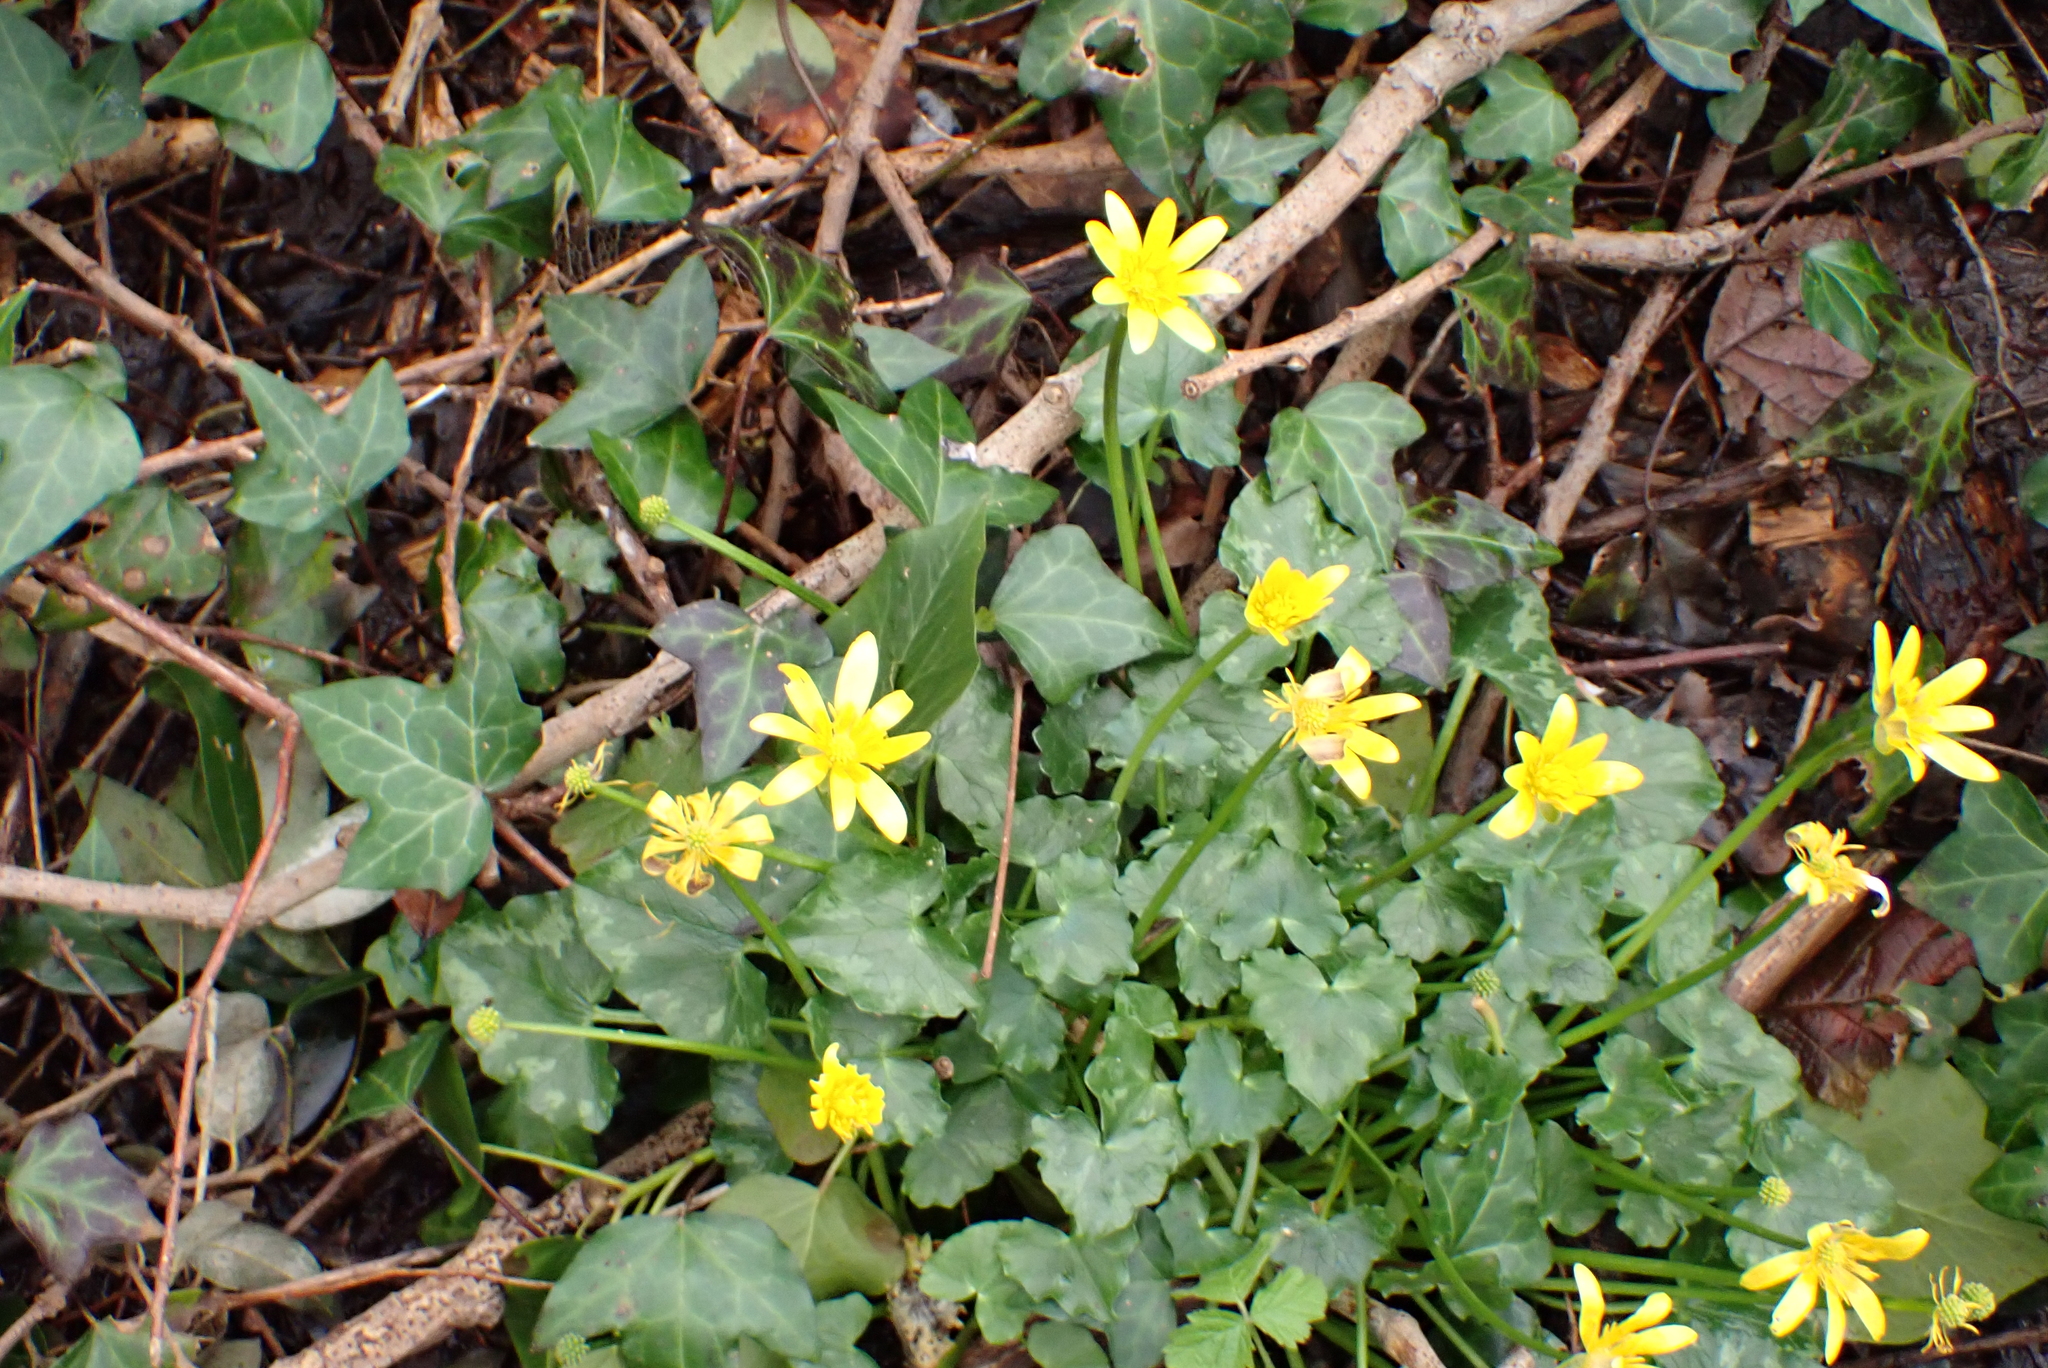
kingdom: Plantae
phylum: Tracheophyta
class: Magnoliopsida
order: Ranunculales
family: Ranunculaceae
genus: Ficaria
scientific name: Ficaria verna
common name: Lesser celandine
